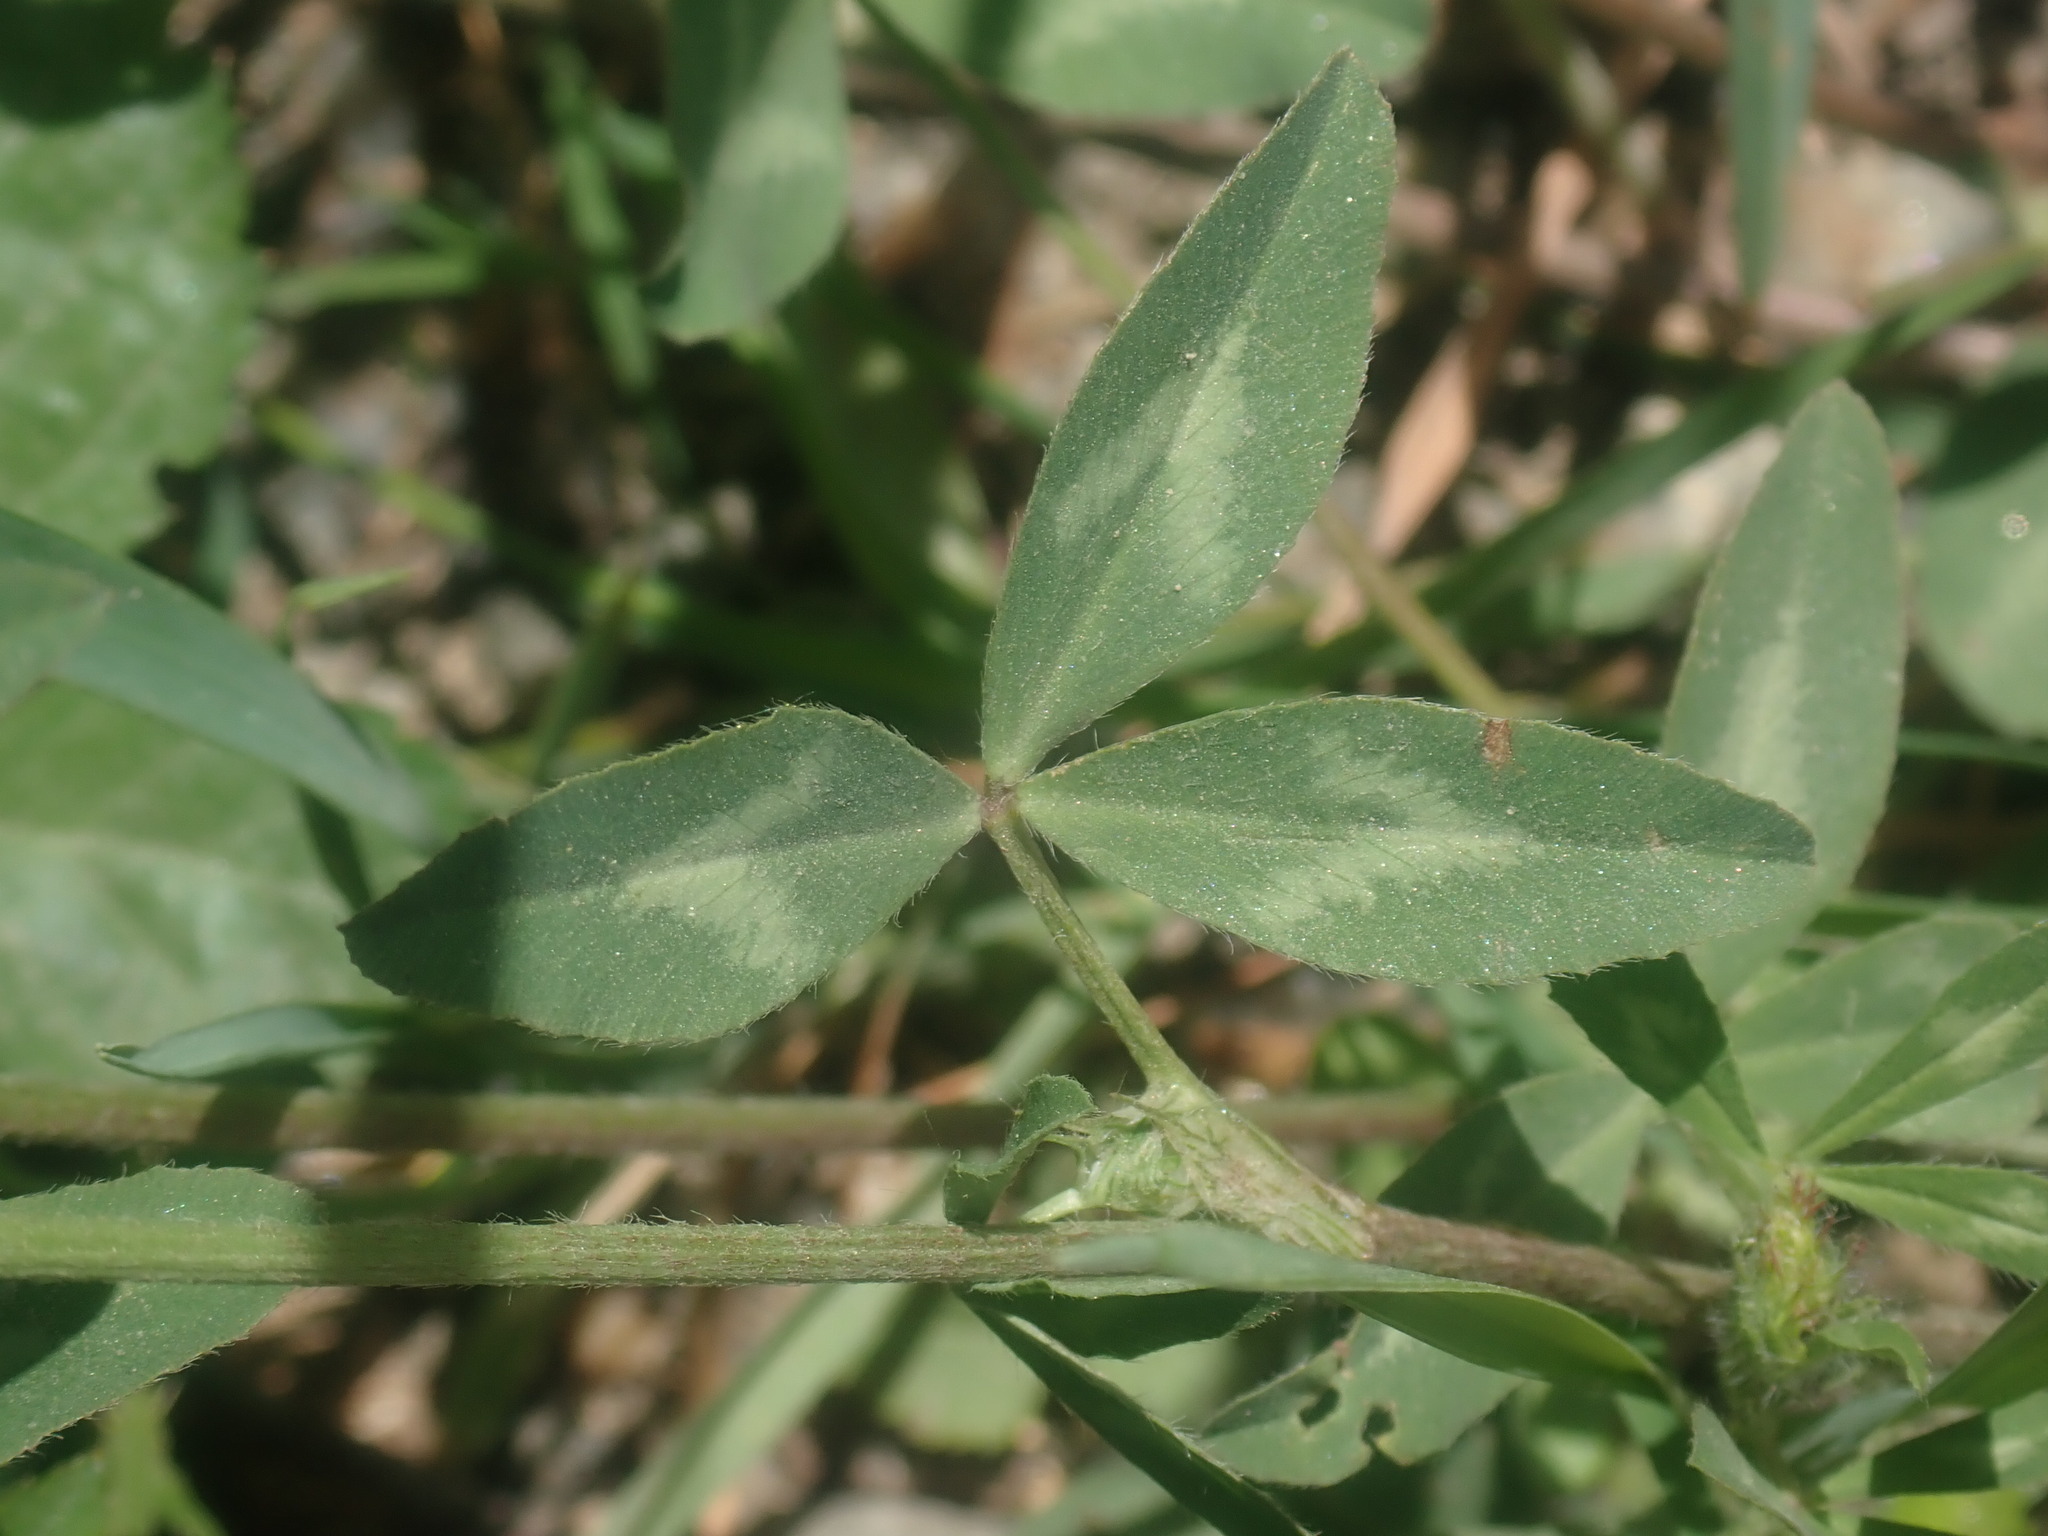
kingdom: Plantae
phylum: Tracheophyta
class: Magnoliopsida
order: Fabales
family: Fabaceae
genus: Trifolium
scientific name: Trifolium pratense
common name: Red clover
